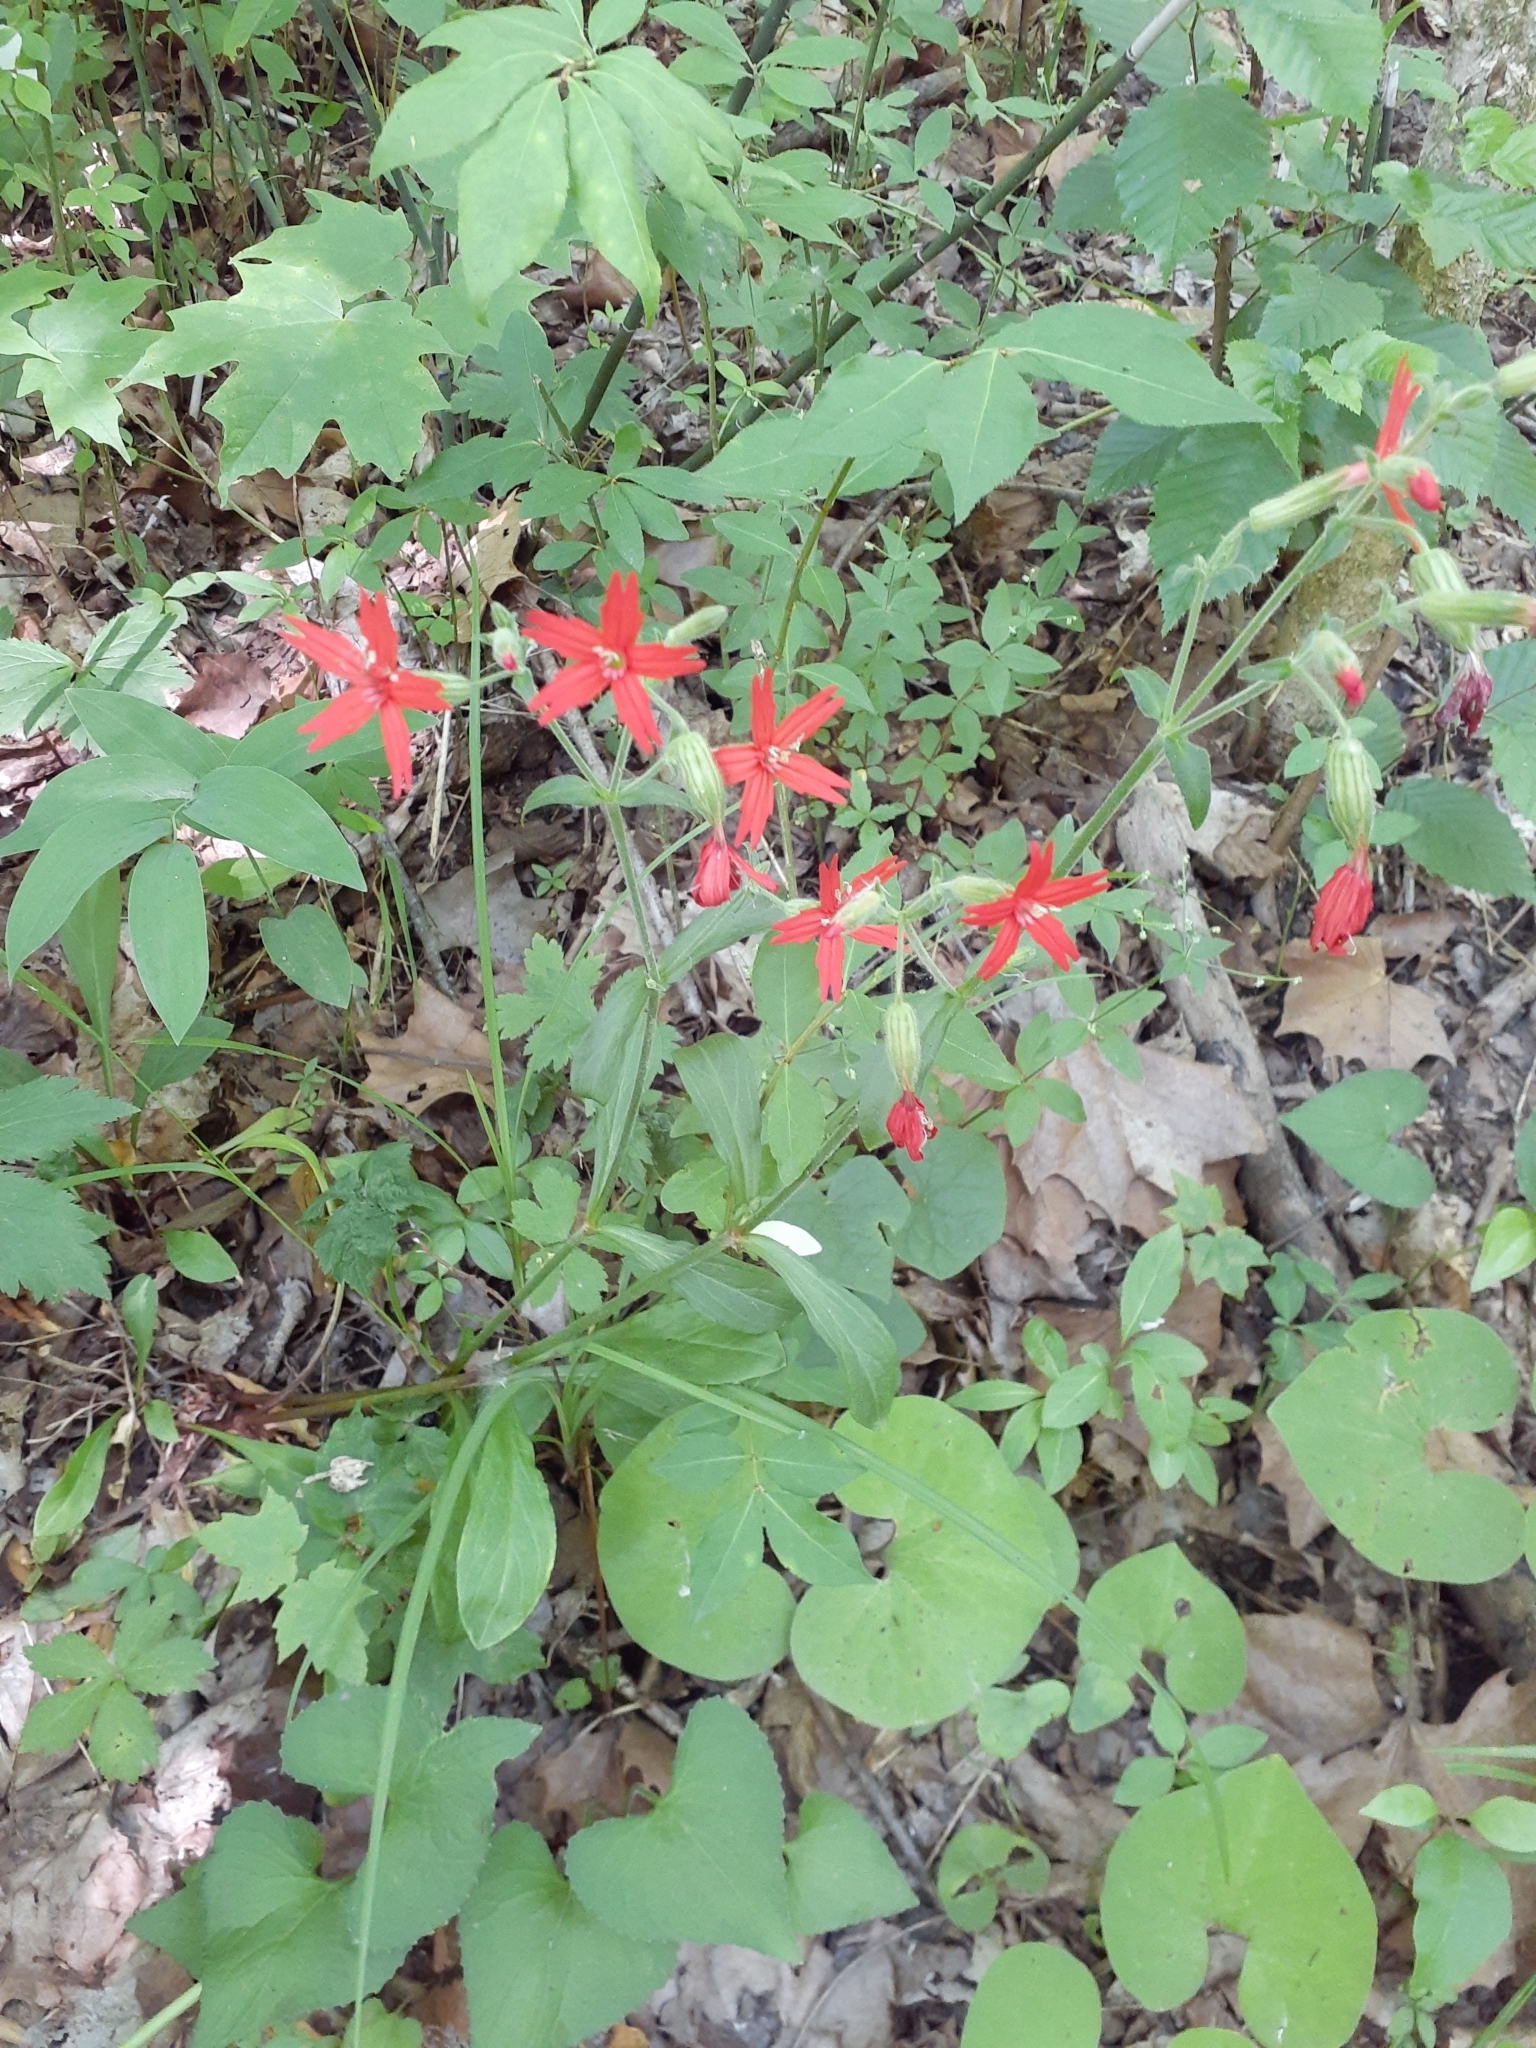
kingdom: Plantae
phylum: Tracheophyta
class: Magnoliopsida
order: Caryophyllales
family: Caryophyllaceae
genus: Silene
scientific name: Silene virginica
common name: Fire-pink
